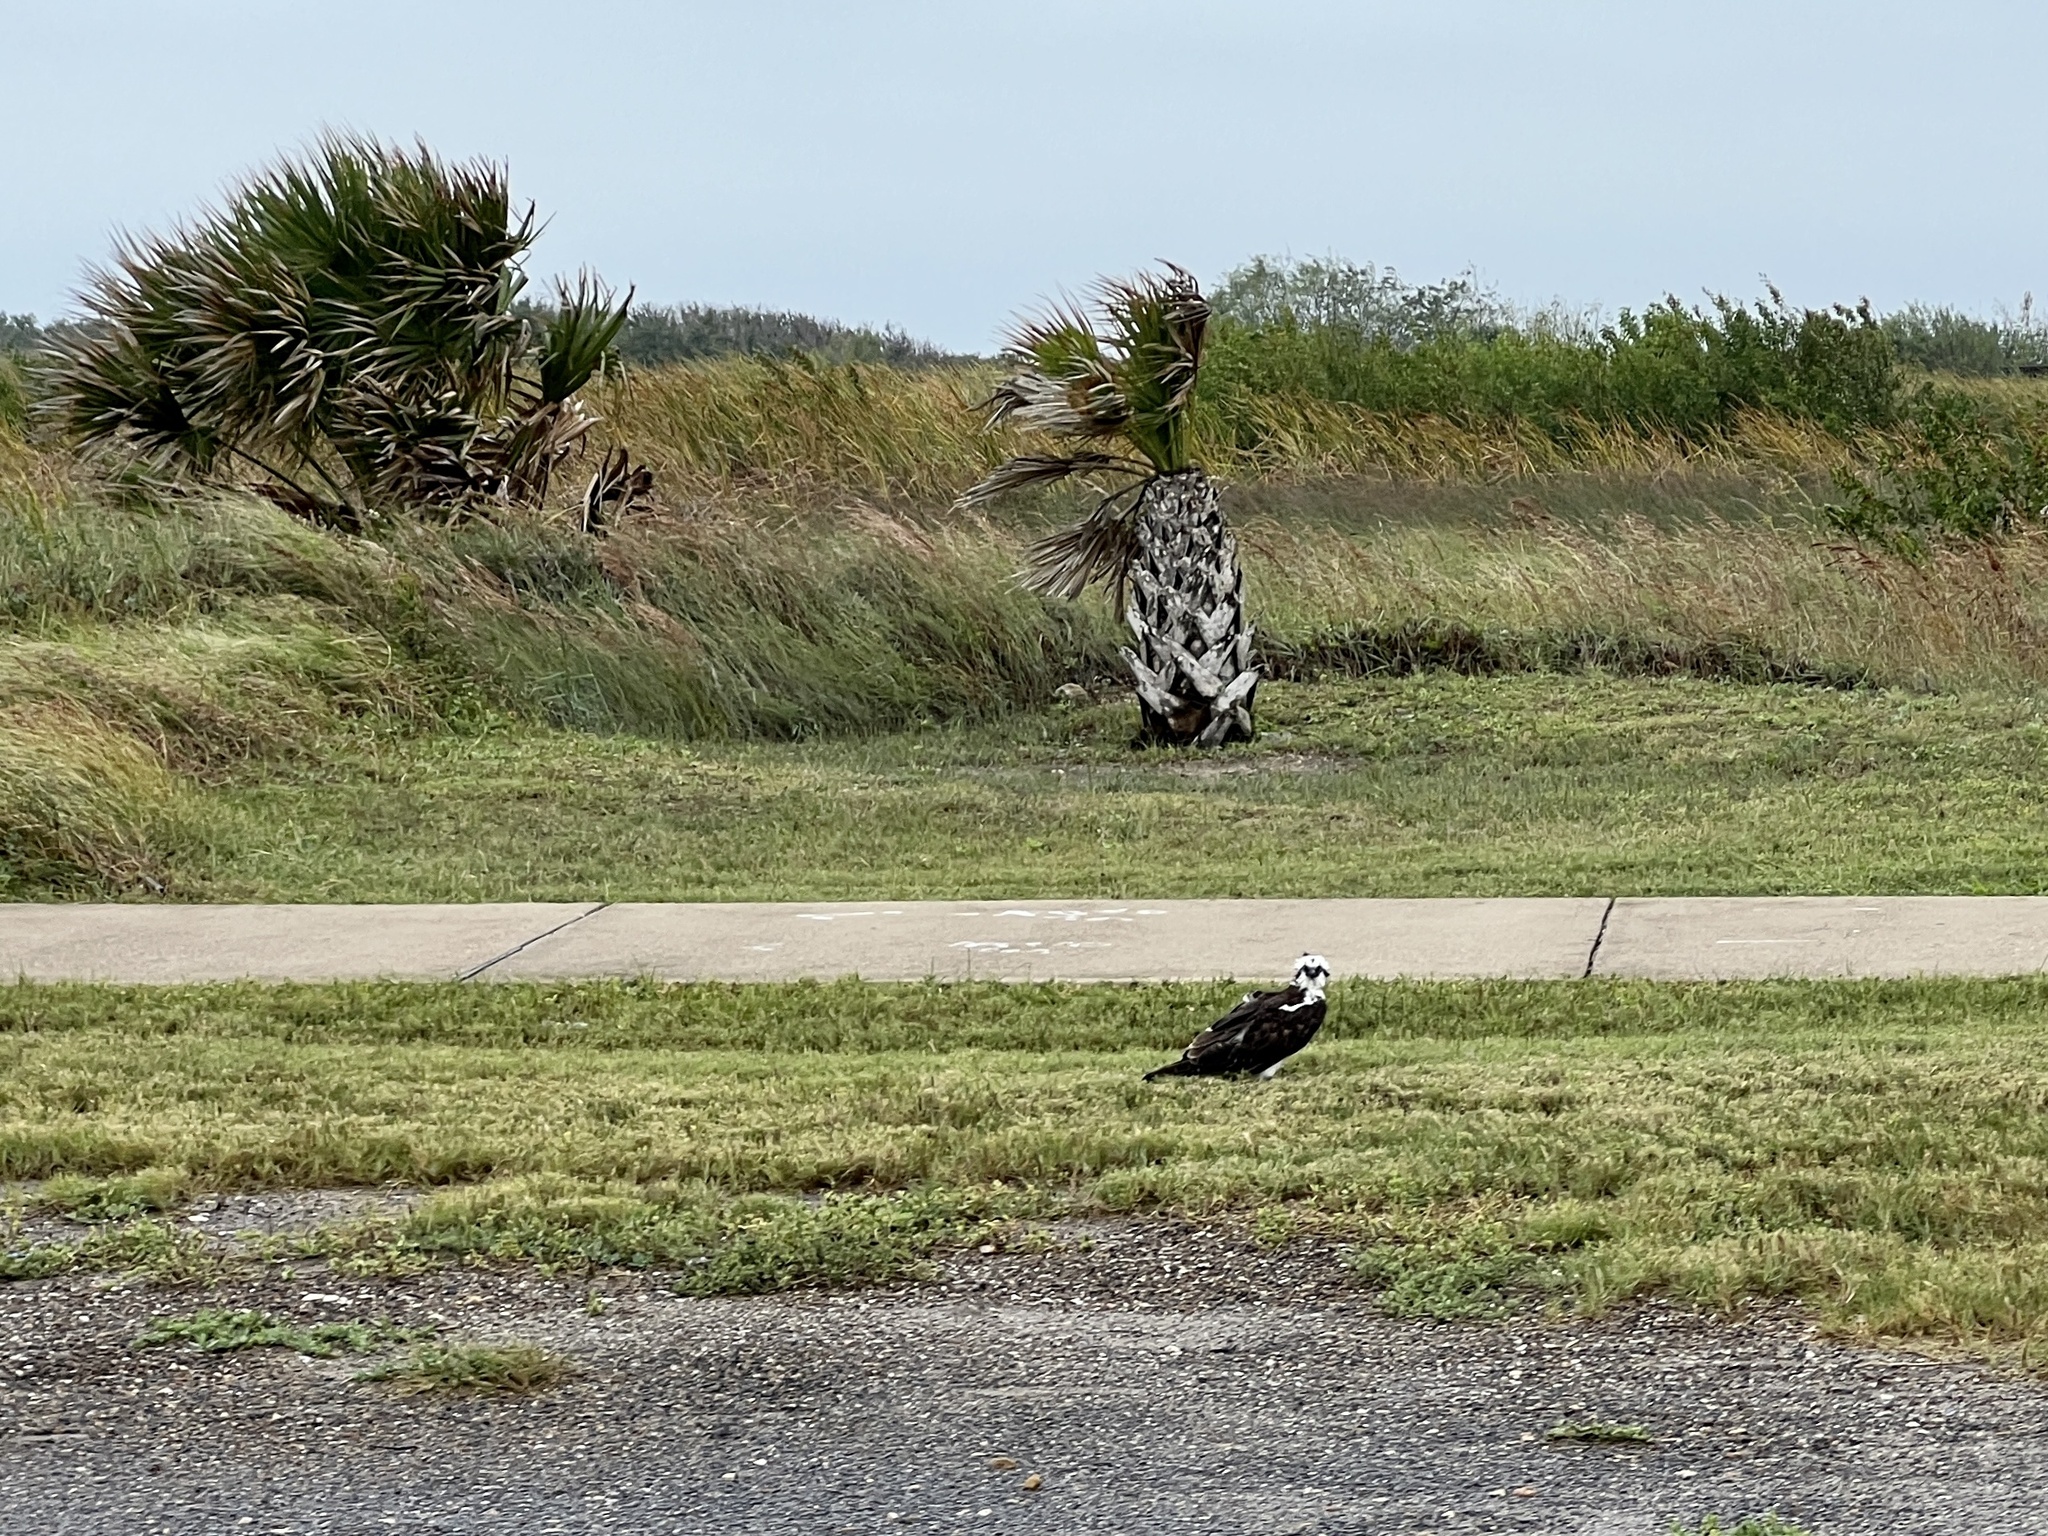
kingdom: Animalia
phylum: Chordata
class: Aves
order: Accipitriformes
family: Pandionidae
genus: Pandion
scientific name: Pandion haliaetus
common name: Osprey
